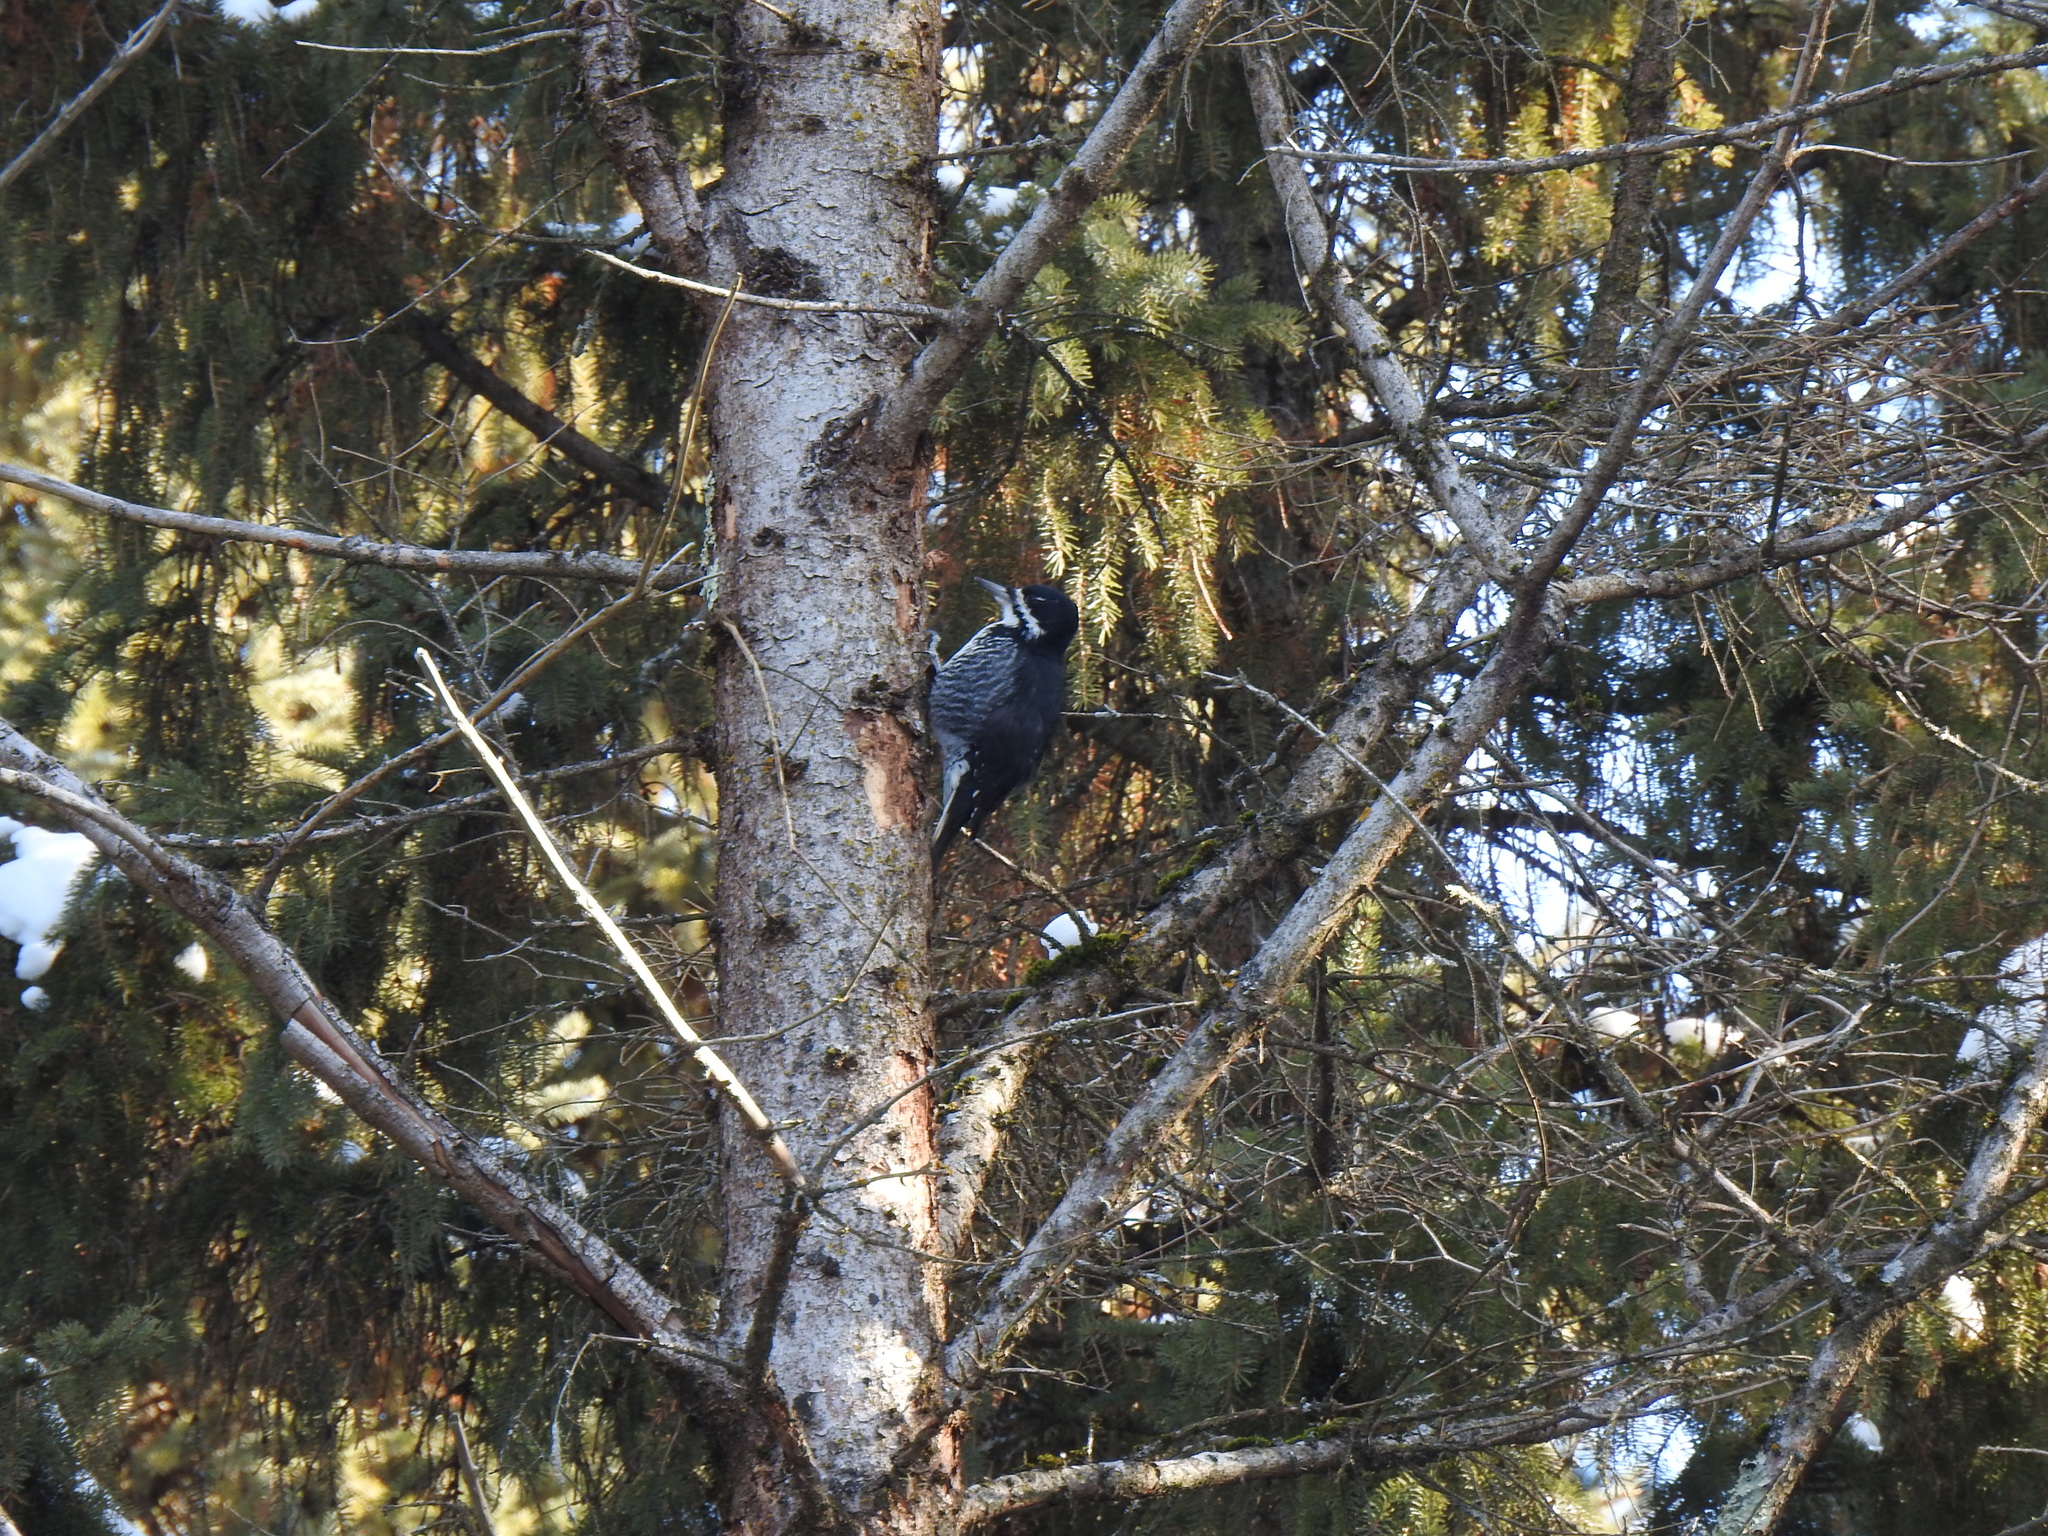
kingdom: Animalia
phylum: Chordata
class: Aves
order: Piciformes
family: Picidae
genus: Picoides
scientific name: Picoides arcticus
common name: Black-backed woodpecker
